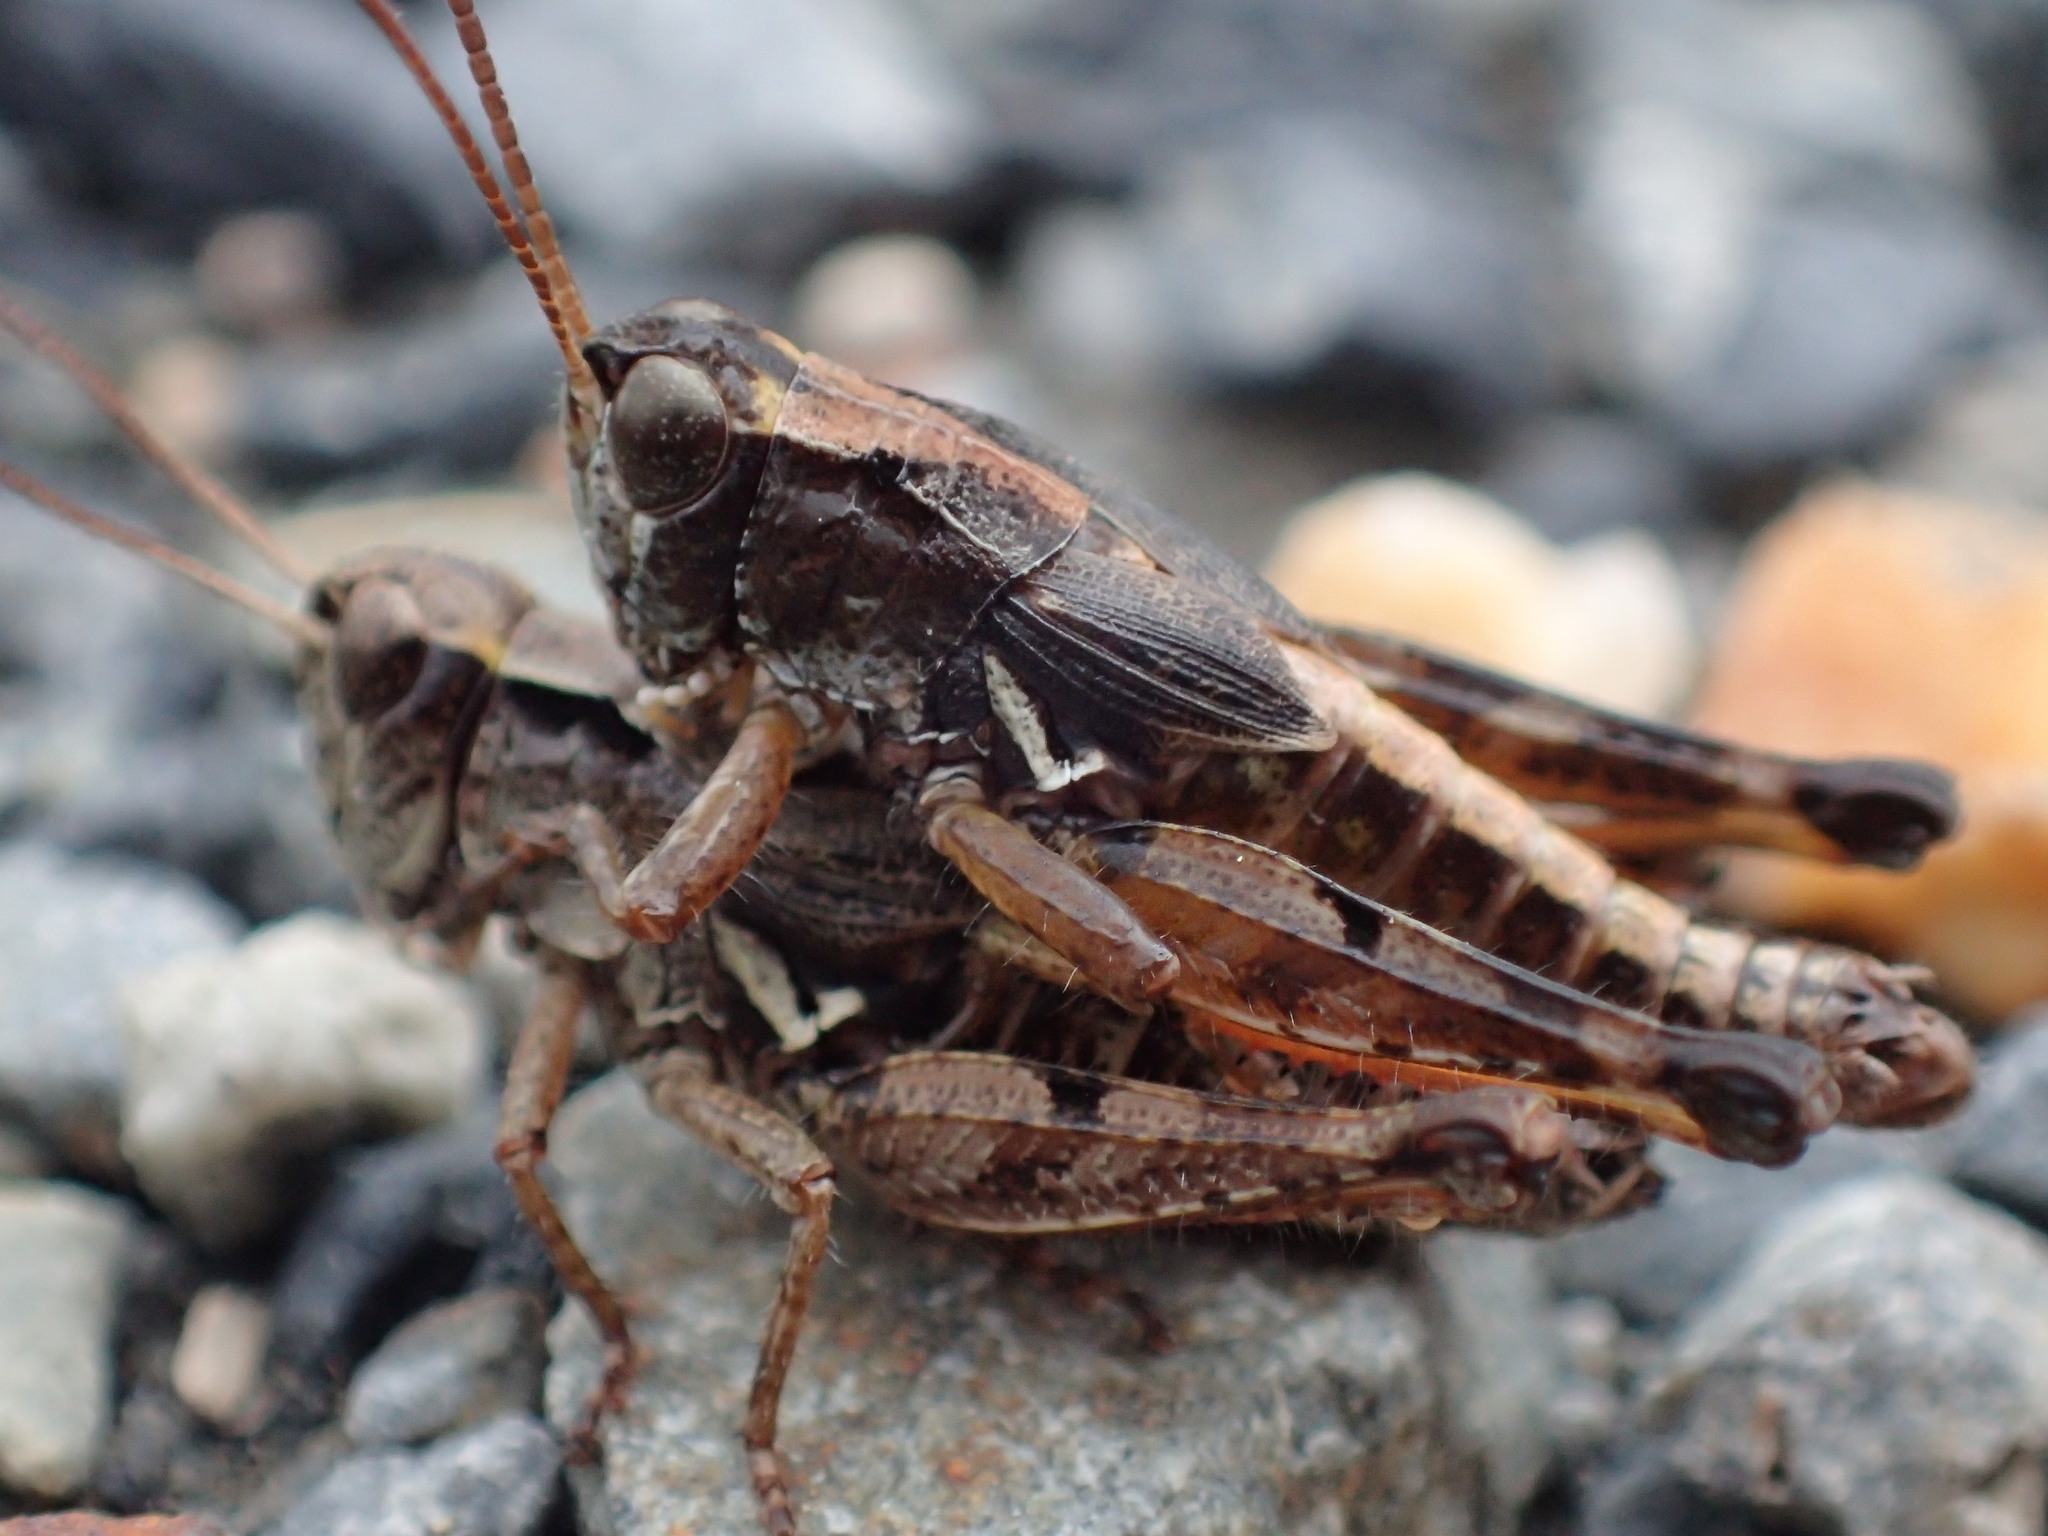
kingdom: Animalia
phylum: Arthropoda
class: Insecta
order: Orthoptera
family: Acrididae
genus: Phaulacridium
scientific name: Phaulacridium marginale
